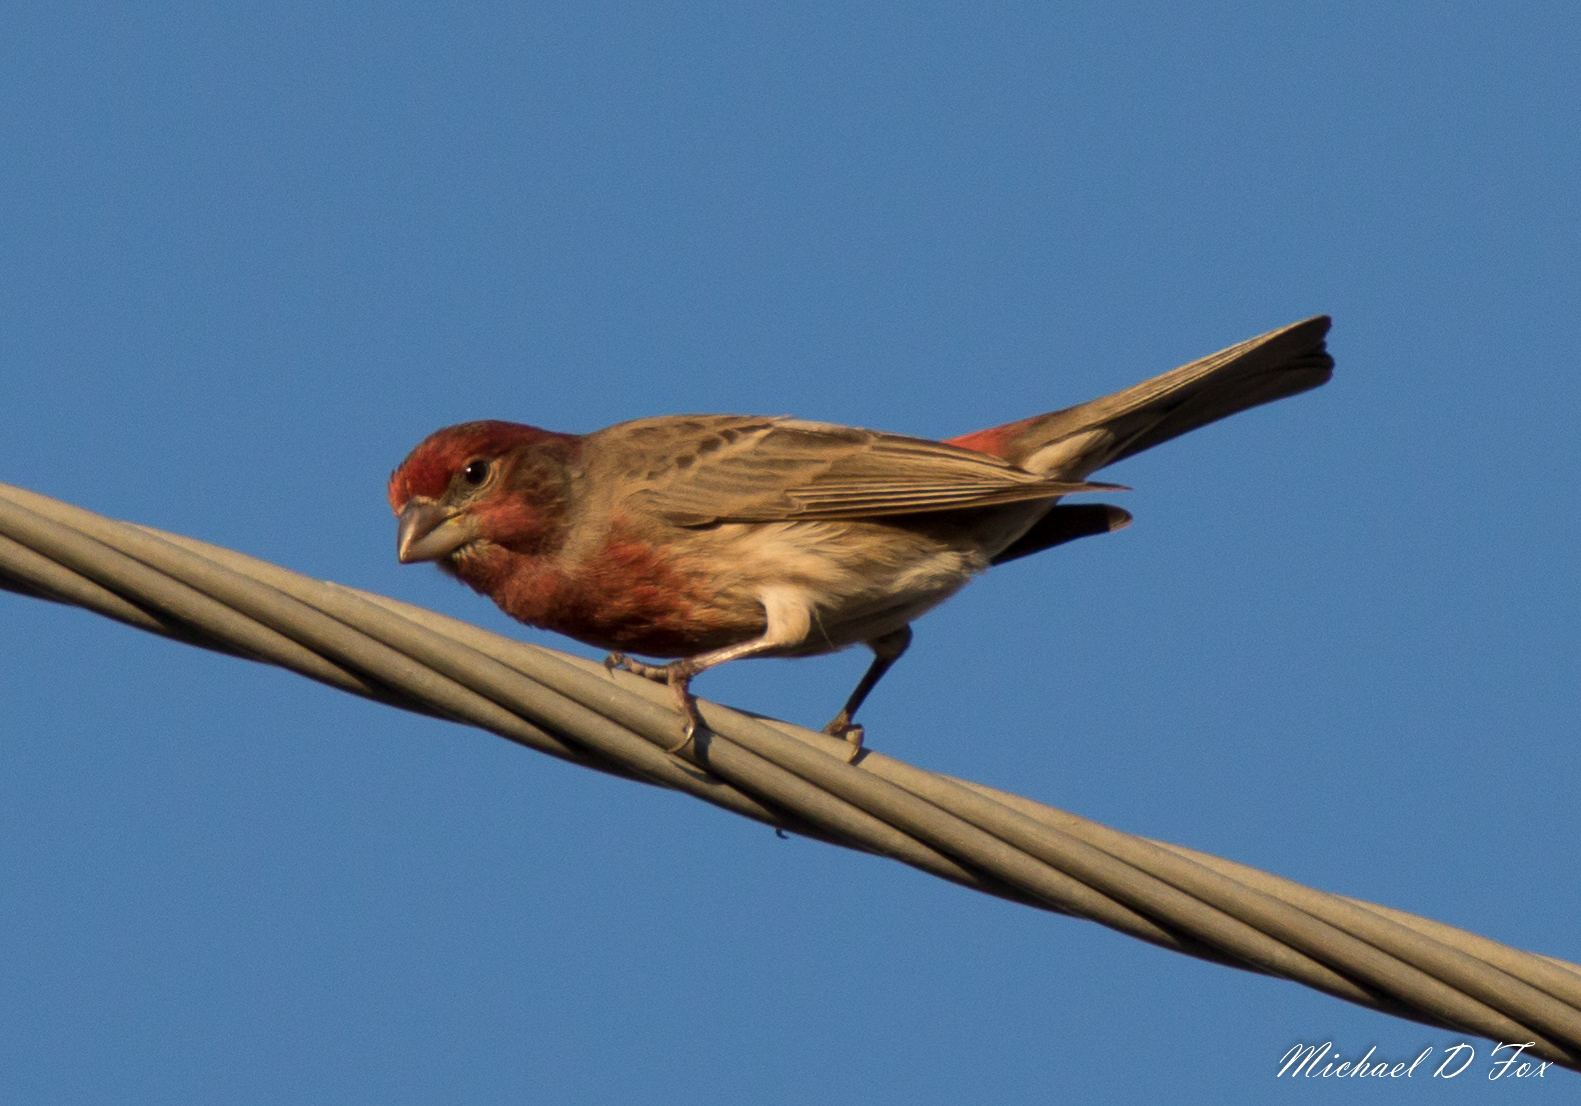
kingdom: Animalia
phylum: Chordata
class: Aves
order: Passeriformes
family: Fringillidae
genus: Haemorhous
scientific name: Haemorhous mexicanus
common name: House finch
